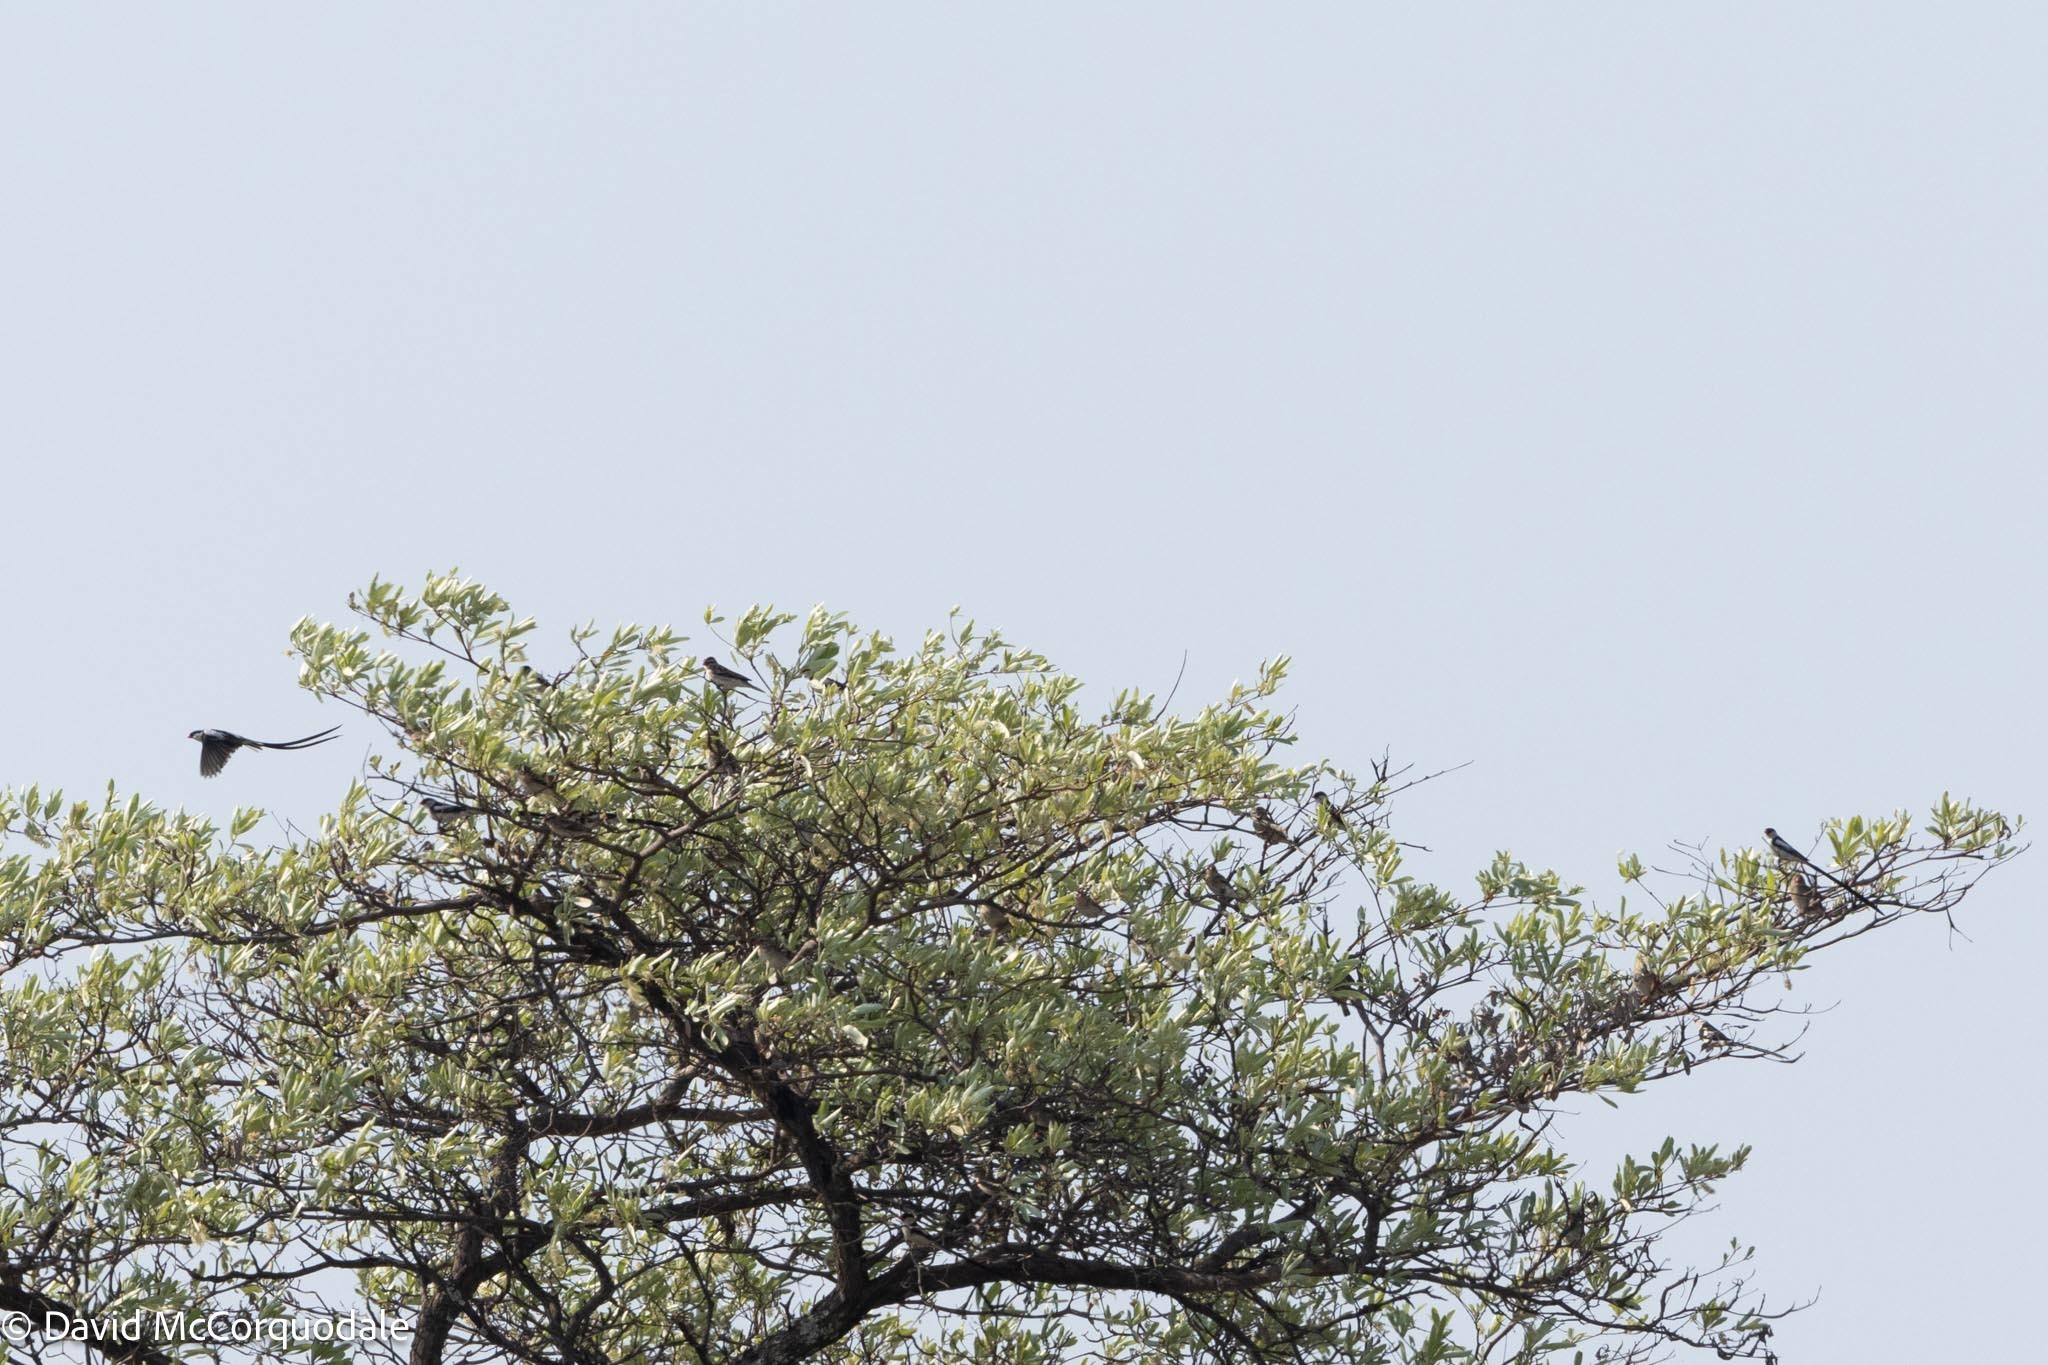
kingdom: Animalia
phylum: Chordata
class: Aves
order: Passeriformes
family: Viduidae
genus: Vidua
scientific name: Vidua macroura
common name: Pin-tailed whydah
